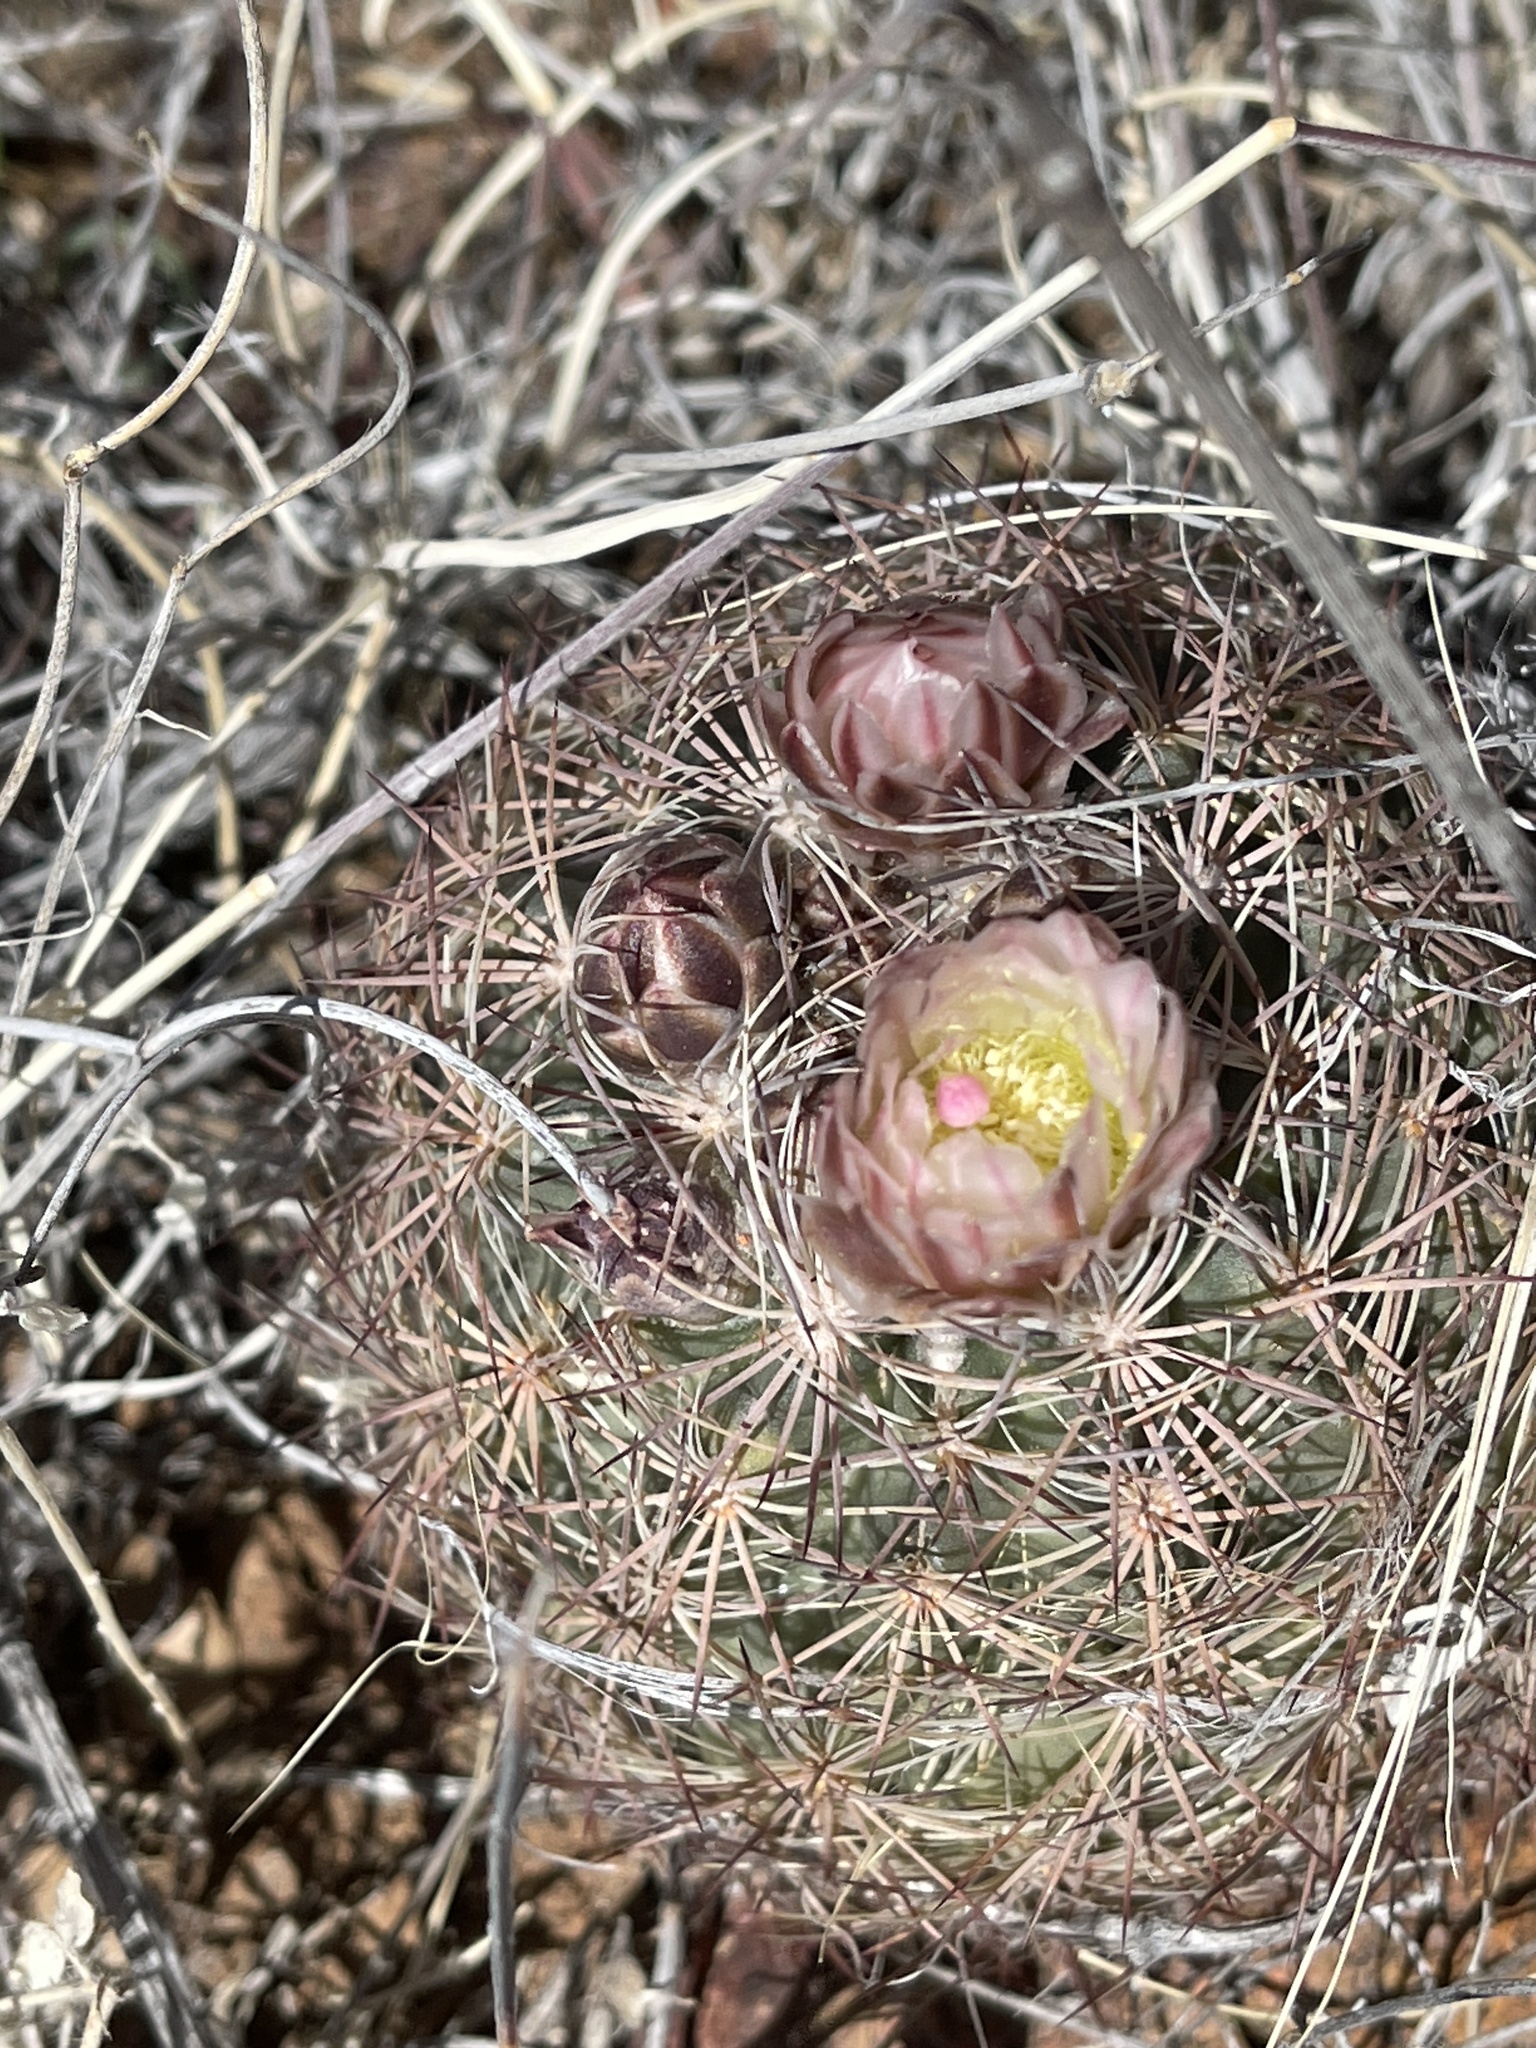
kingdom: Plantae
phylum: Tracheophyta
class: Magnoliopsida
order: Caryophyllales
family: Cactaceae
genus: Sclerocactus
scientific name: Sclerocactus intertextus
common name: White fish-hook cactus
